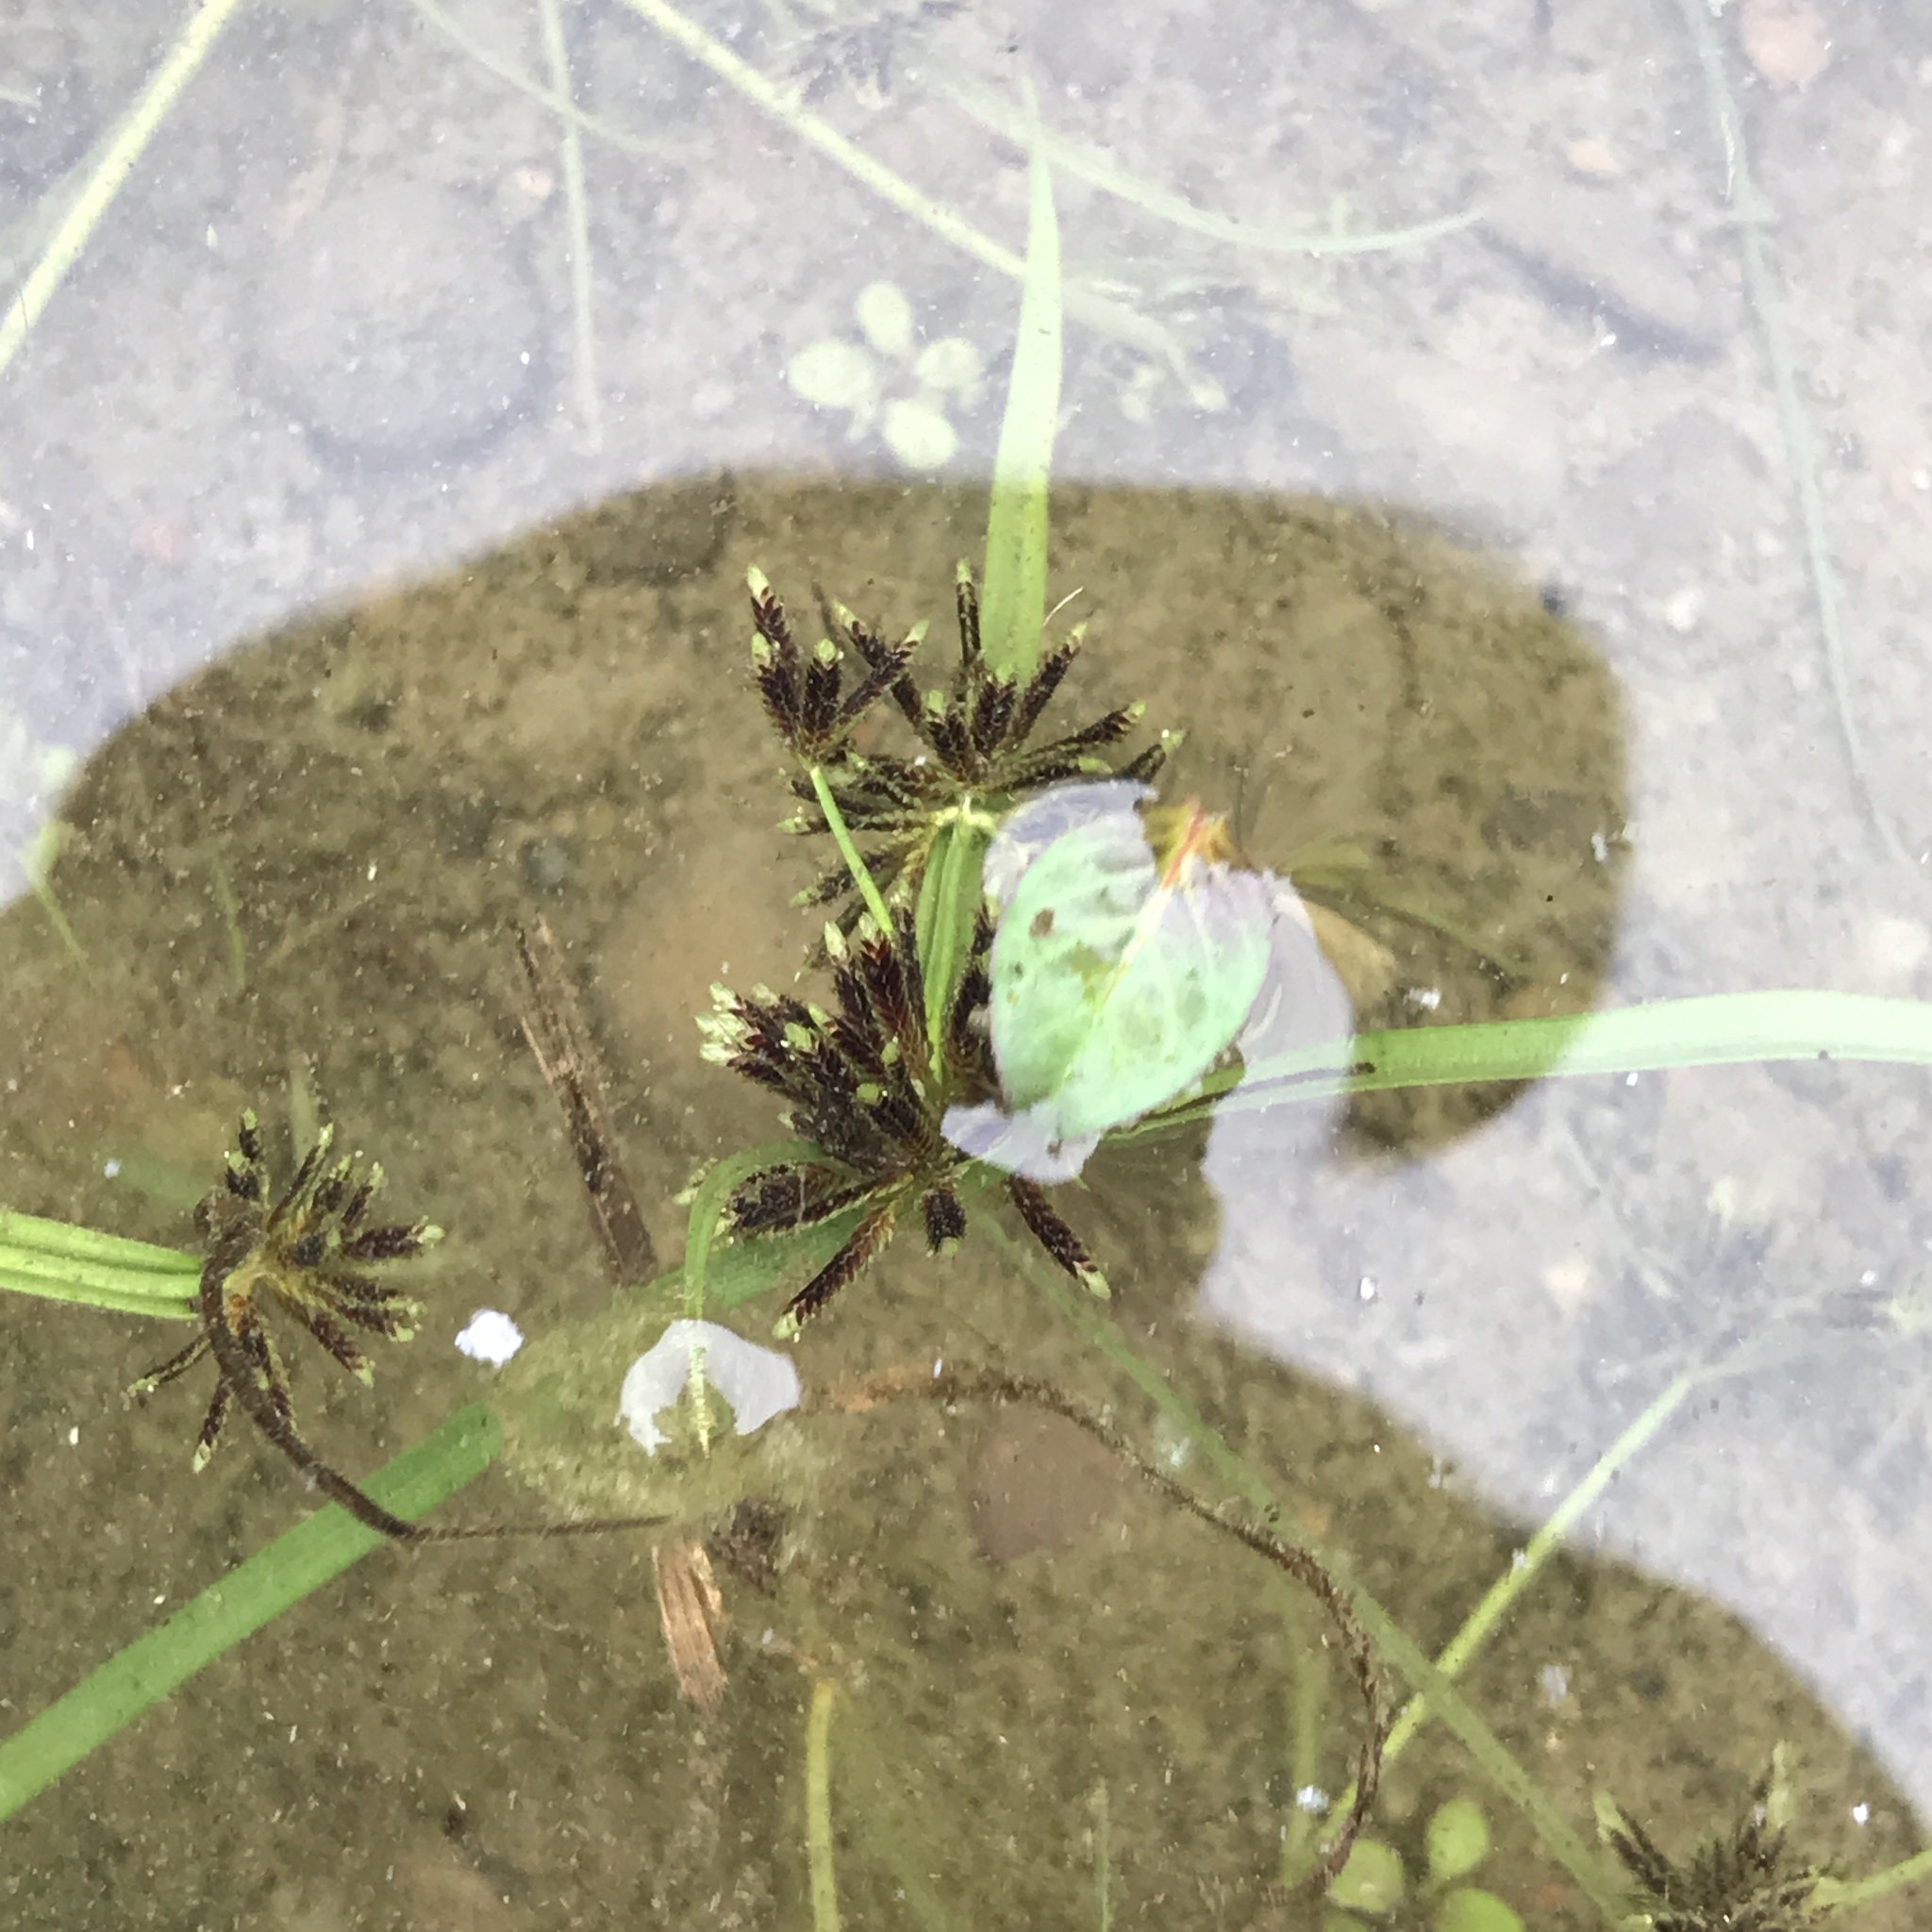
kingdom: Plantae
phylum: Tracheophyta
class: Liliopsida
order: Poales
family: Cyperaceae
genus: Cyperus
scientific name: Cyperus fuscus
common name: Brown galingale
